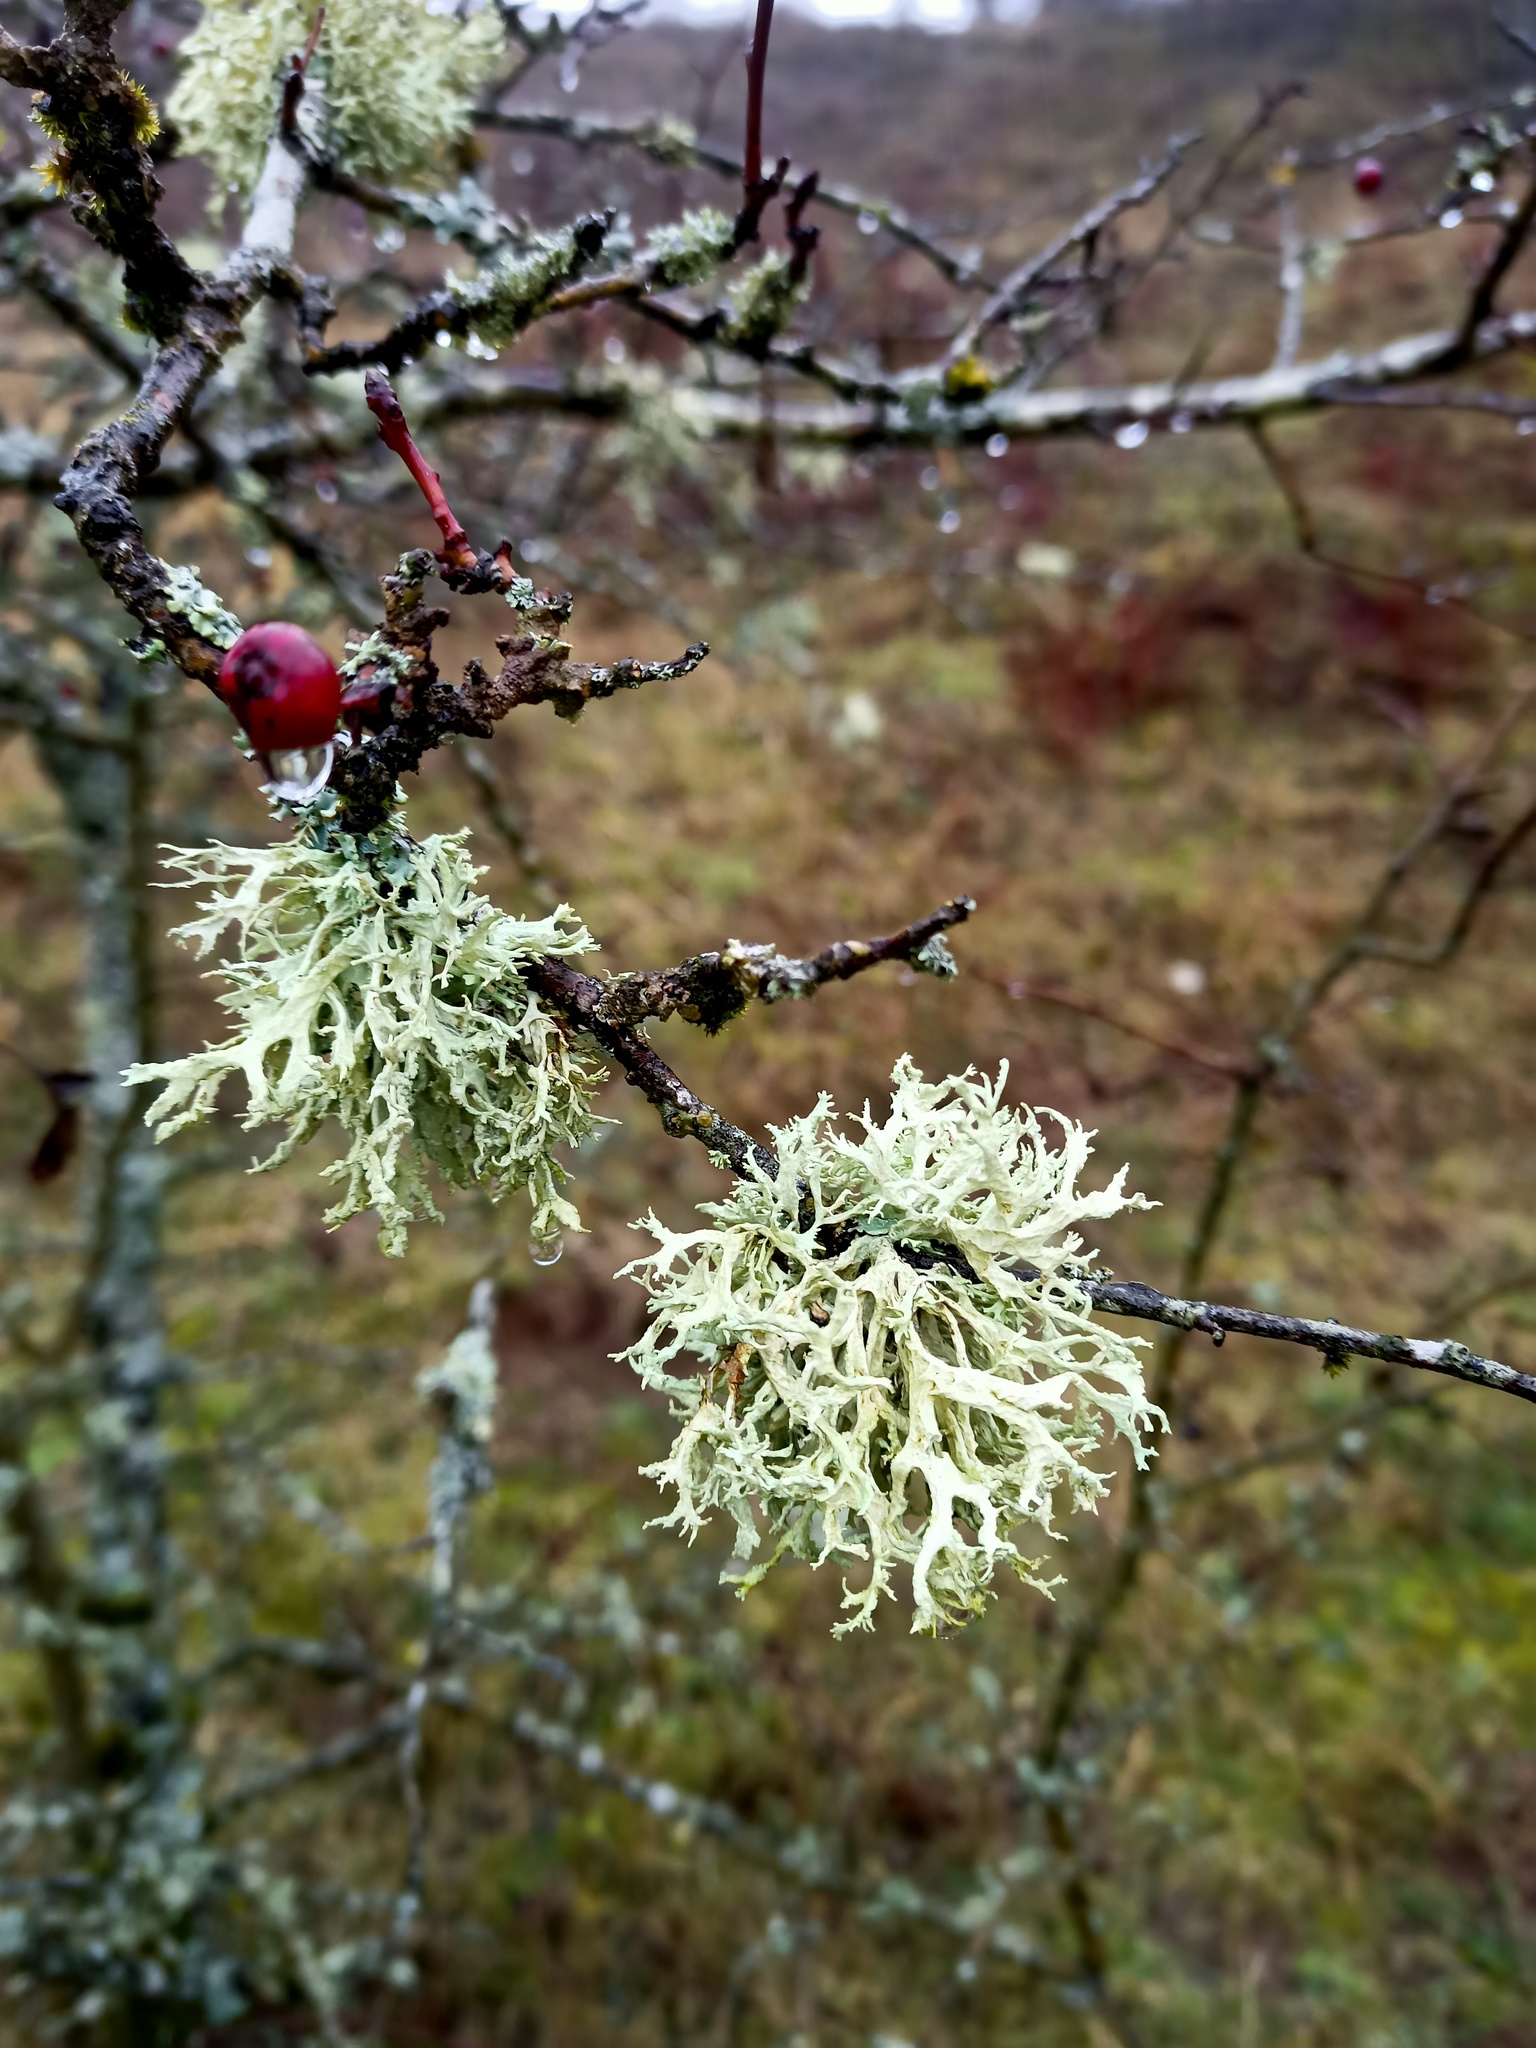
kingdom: Fungi
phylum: Ascomycota
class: Lecanoromycetes
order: Lecanorales
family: Parmeliaceae
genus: Evernia
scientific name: Evernia prunastri
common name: Oak moss
